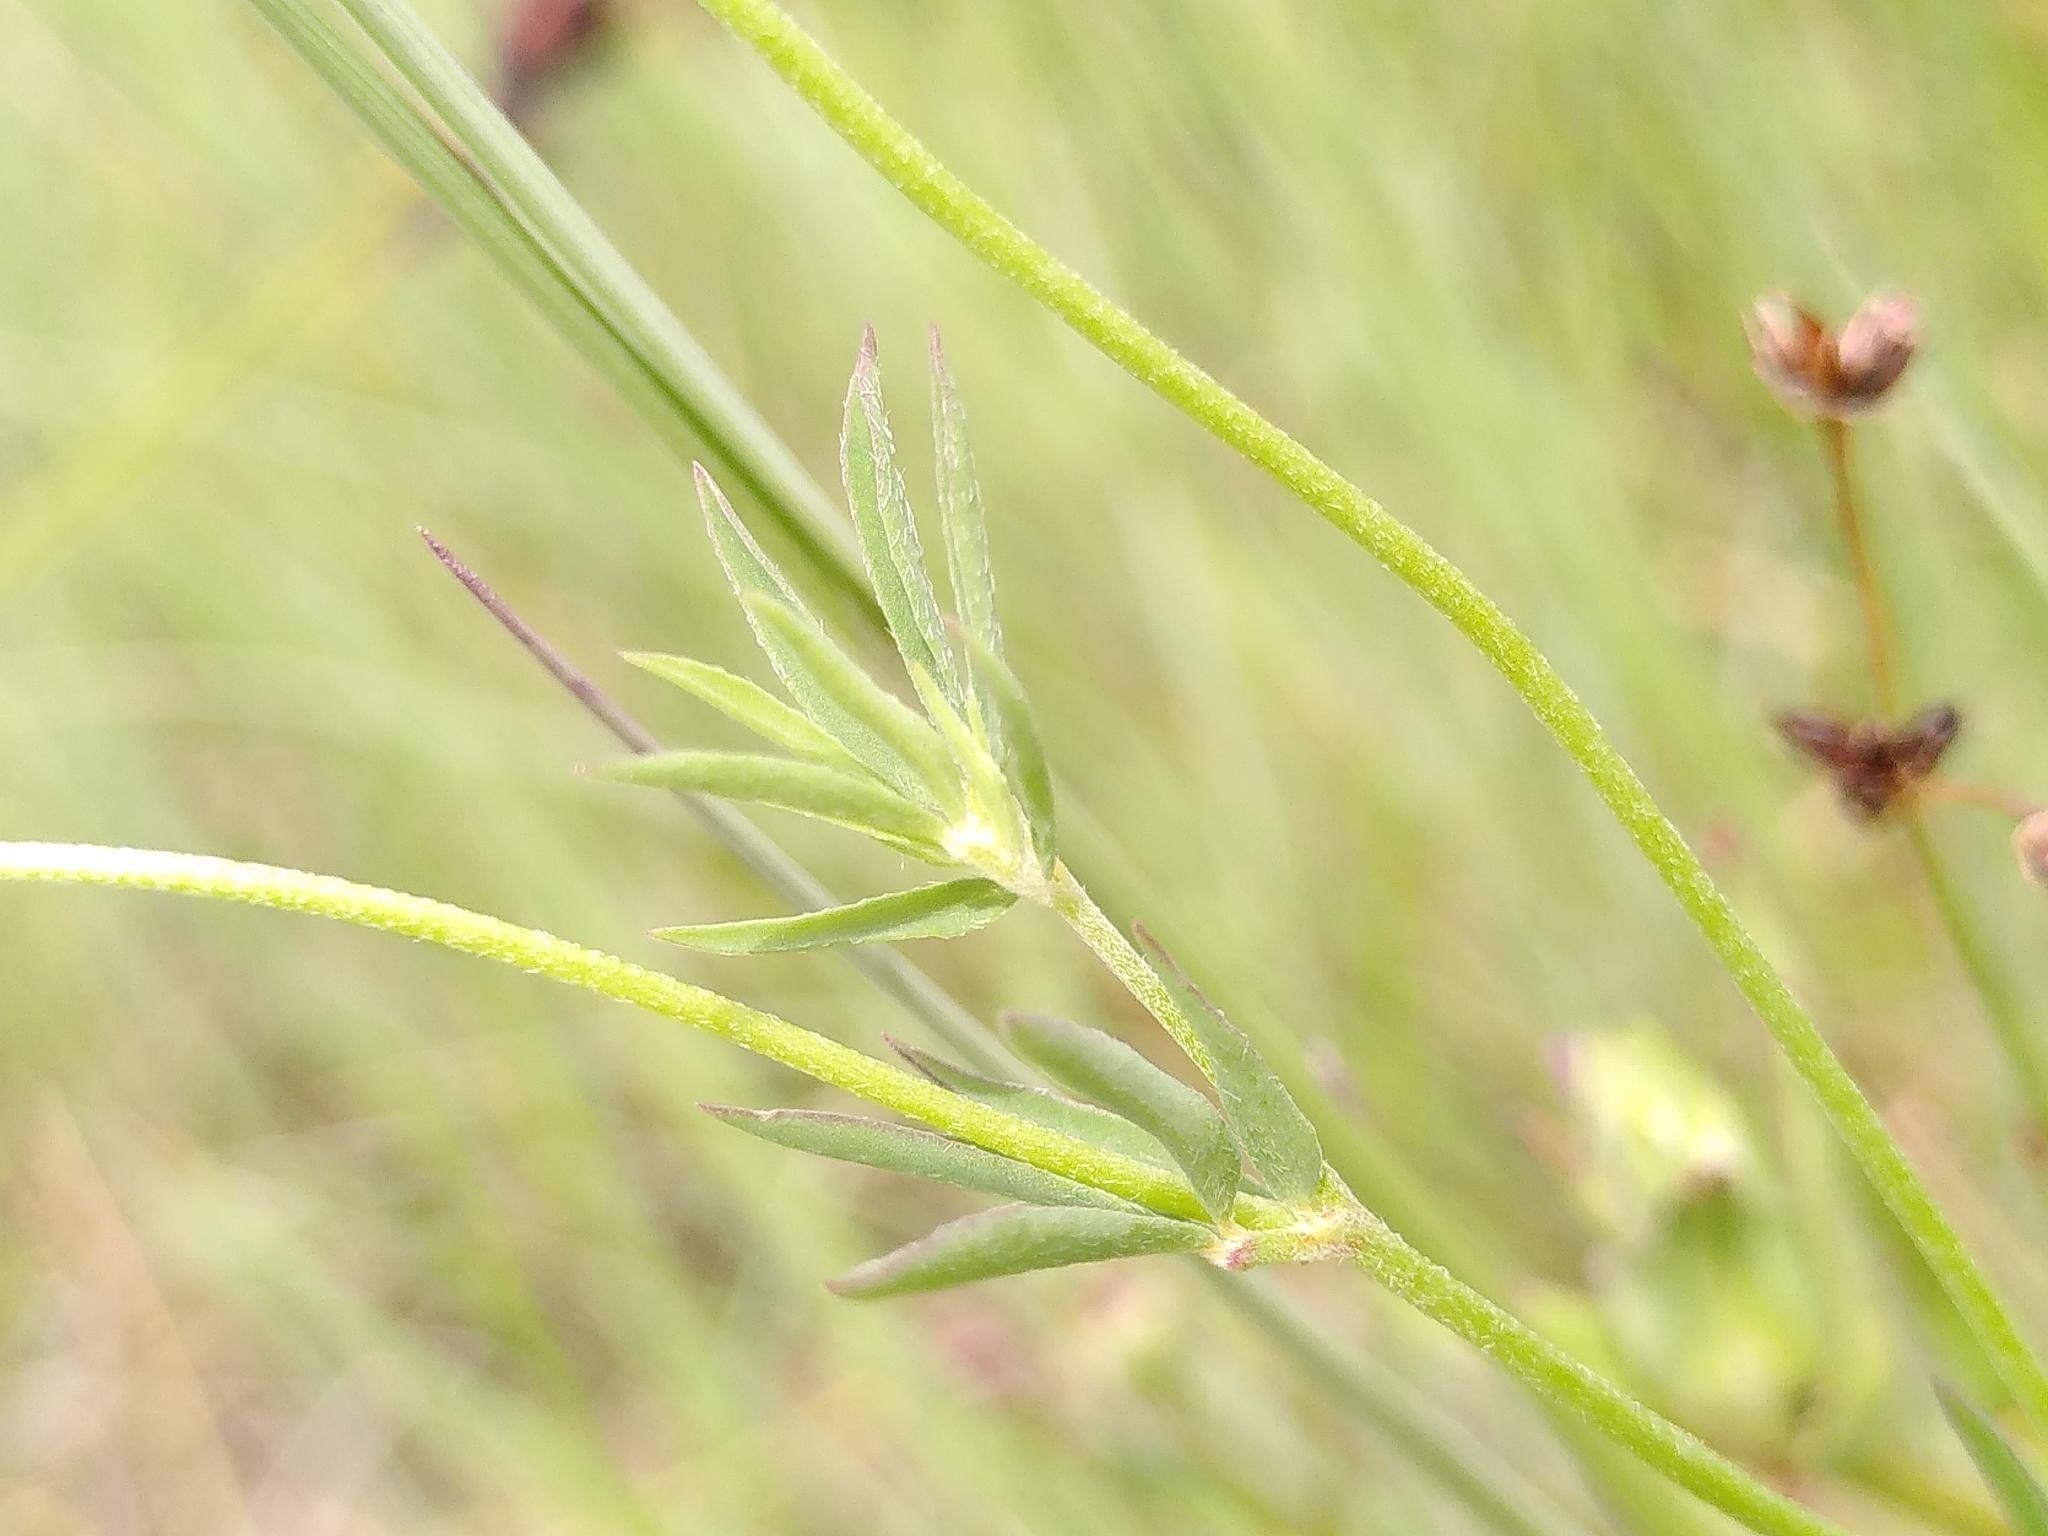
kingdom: Plantae
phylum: Tracheophyta
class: Magnoliopsida
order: Fabales
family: Fabaceae
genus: Lotus
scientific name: Lotus tenuis
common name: Narrow-leaved bird's-foot-trefoil
